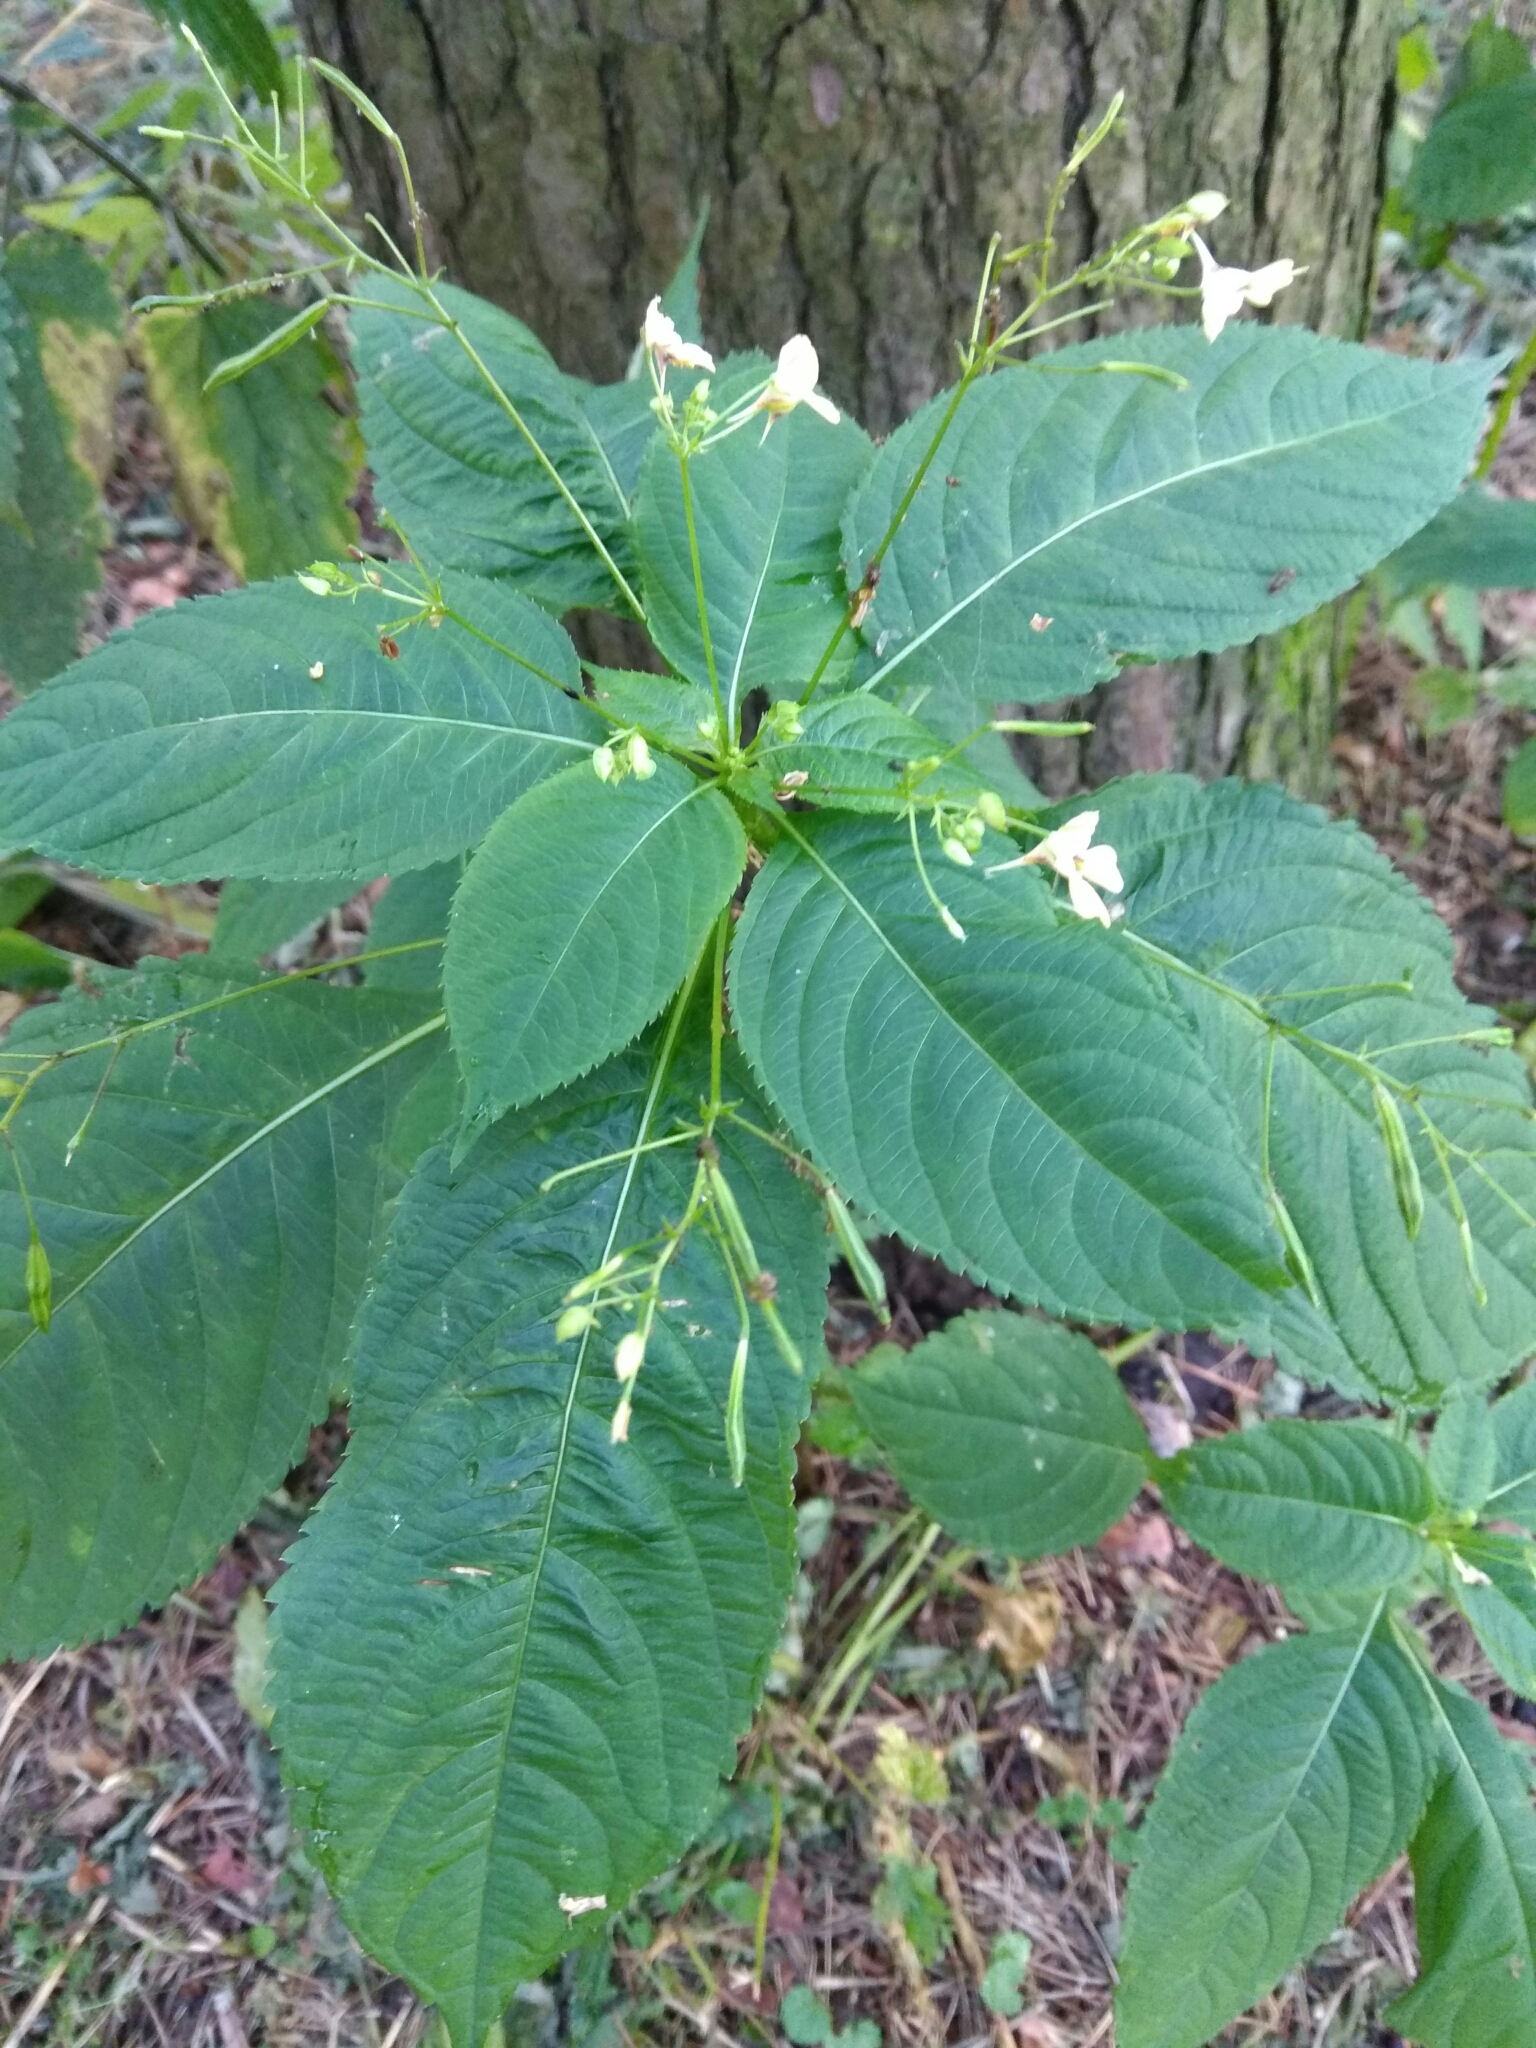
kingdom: Plantae
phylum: Tracheophyta
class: Magnoliopsida
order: Ericales
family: Balsaminaceae
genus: Impatiens
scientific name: Impatiens parviflora
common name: Small balsam
